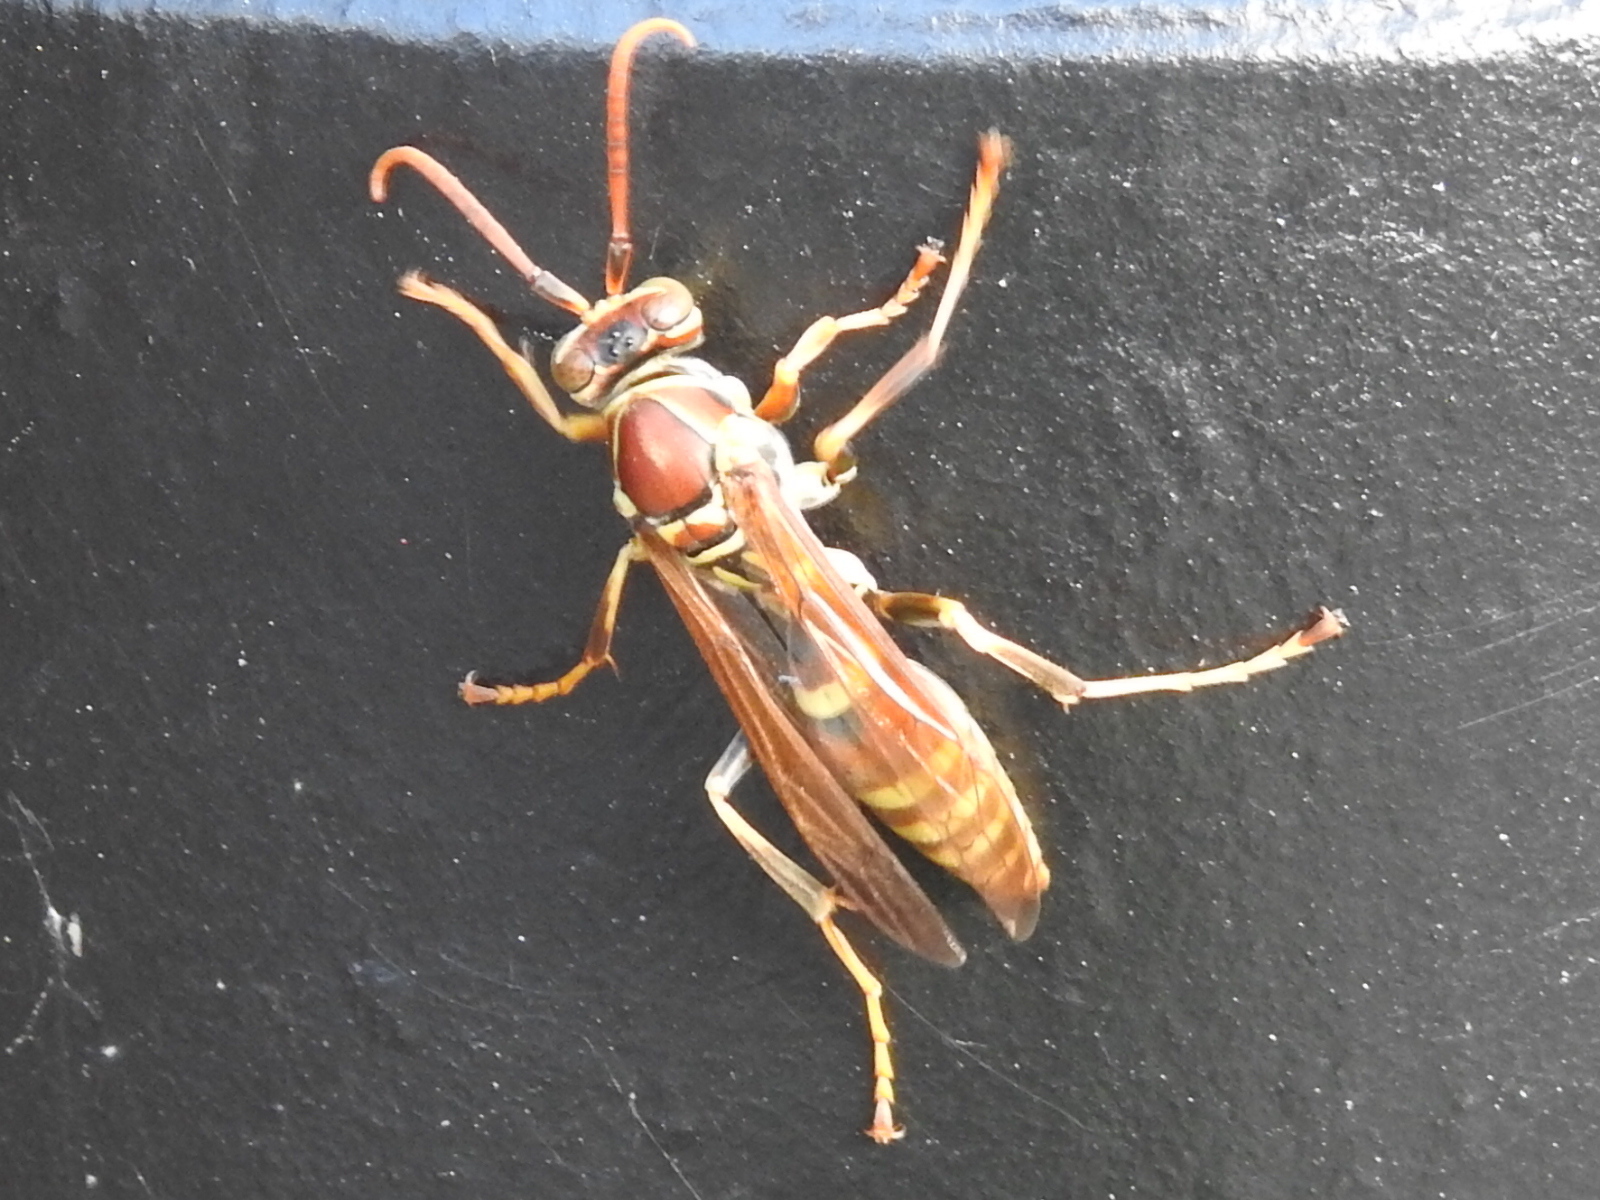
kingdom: Animalia
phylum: Arthropoda
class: Insecta
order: Hymenoptera
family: Eumenidae
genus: Polistes
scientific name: Polistes exclamans
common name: Paper wasp
